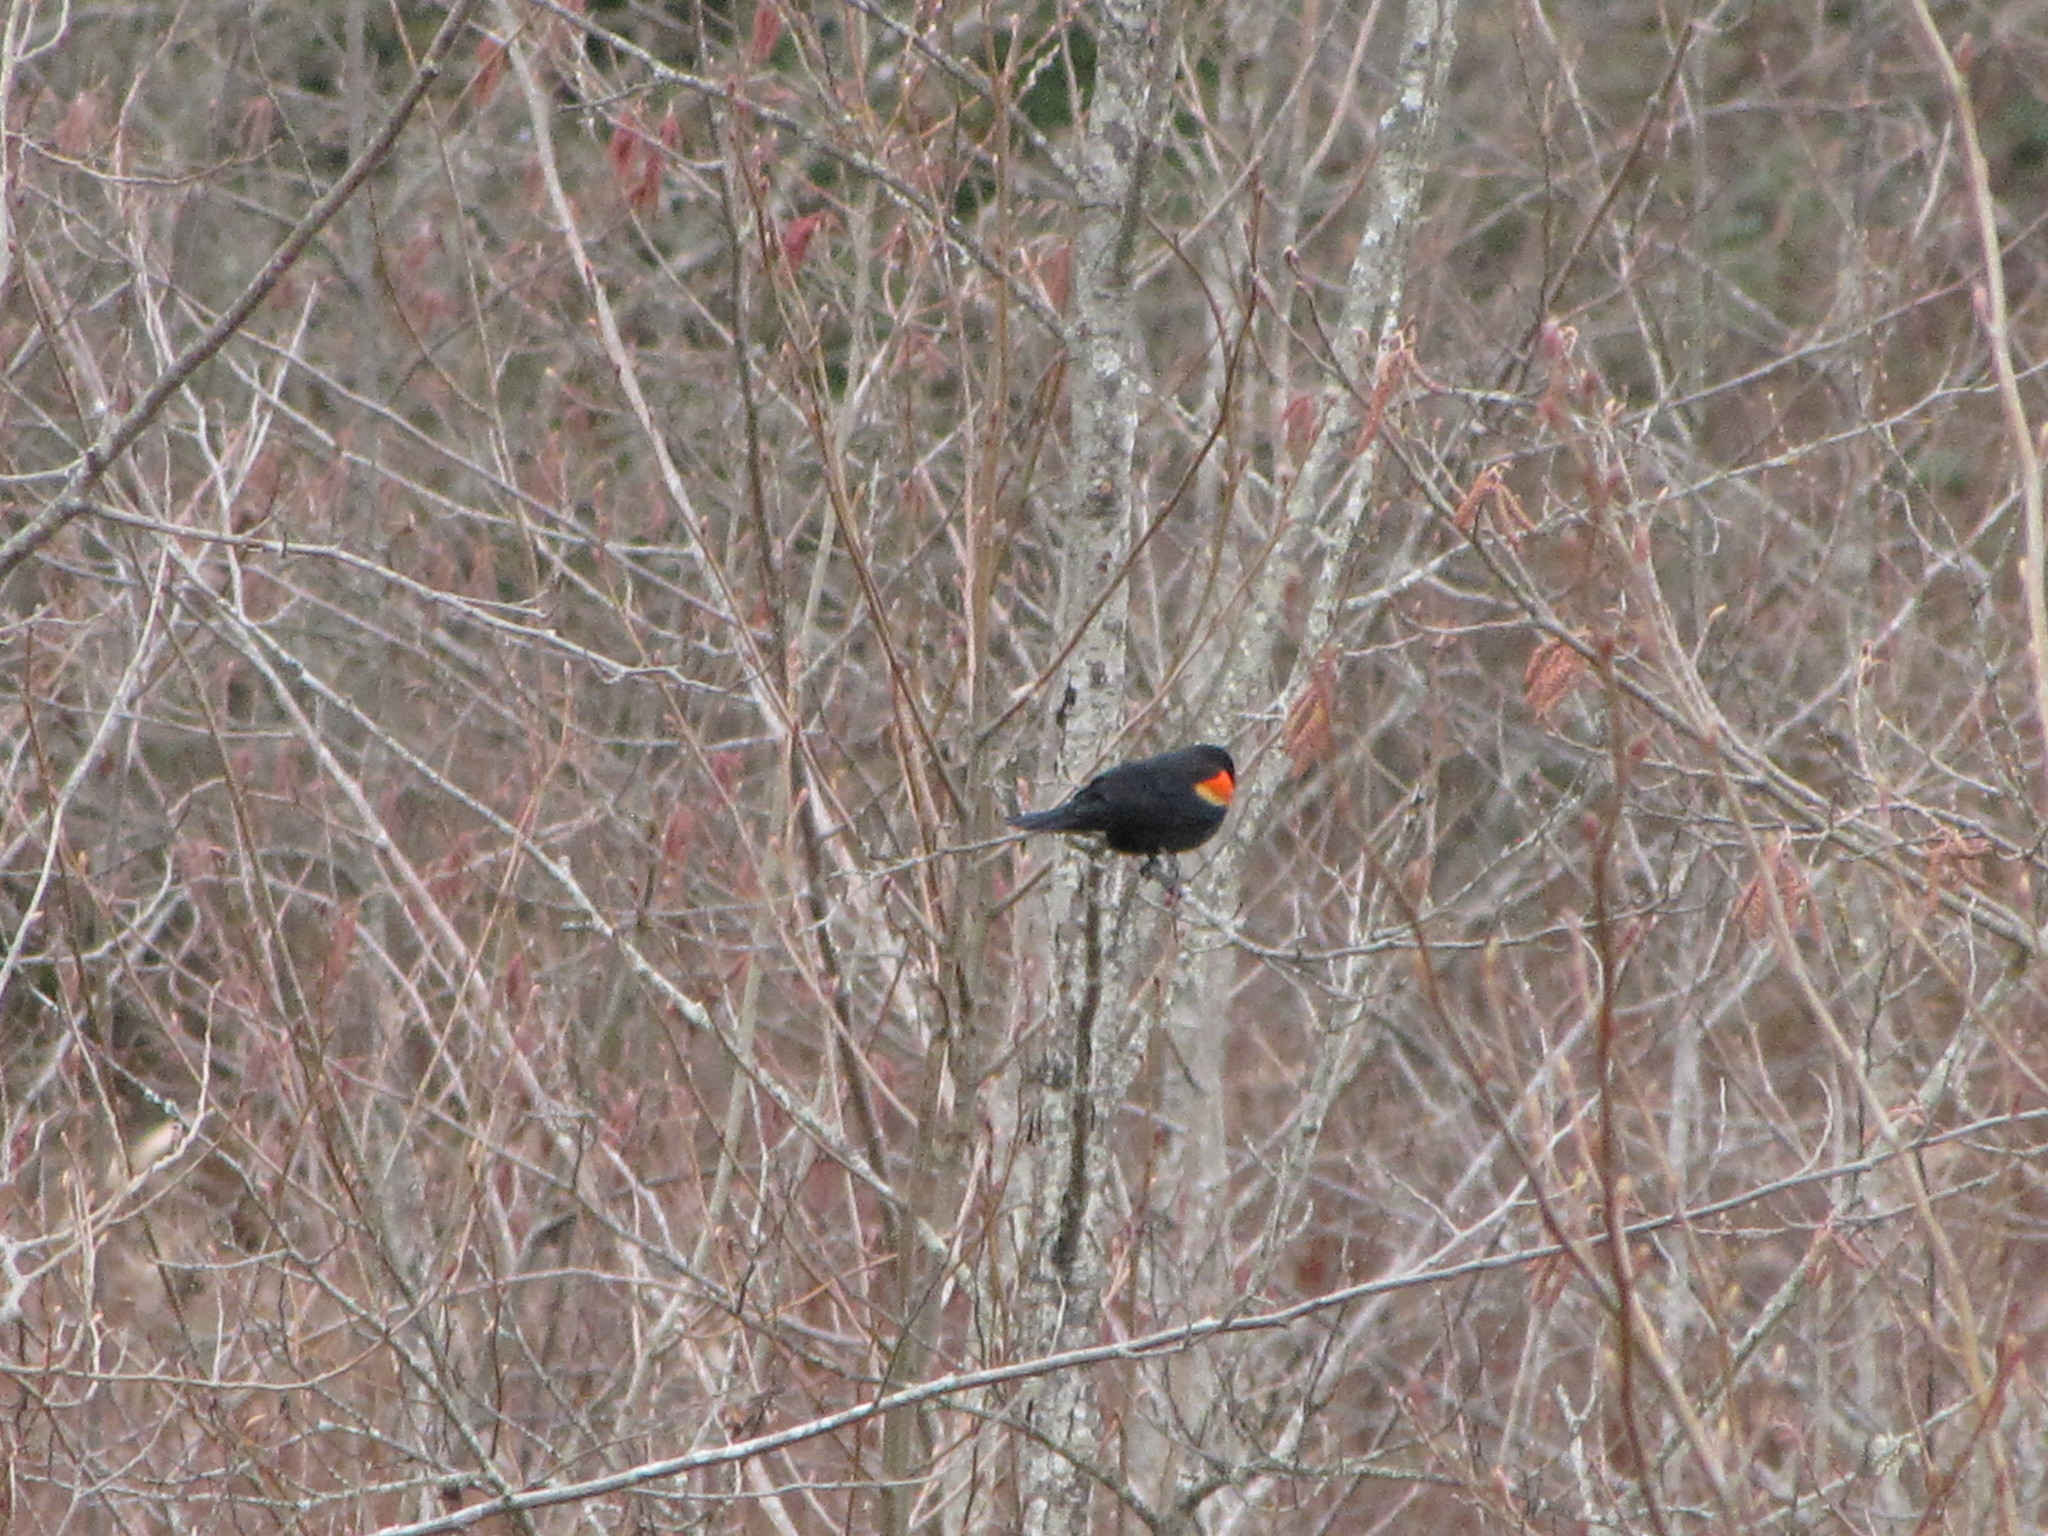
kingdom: Animalia
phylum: Chordata
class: Aves
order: Passeriformes
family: Icteridae
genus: Agelaius
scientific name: Agelaius phoeniceus
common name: Red-winged blackbird
